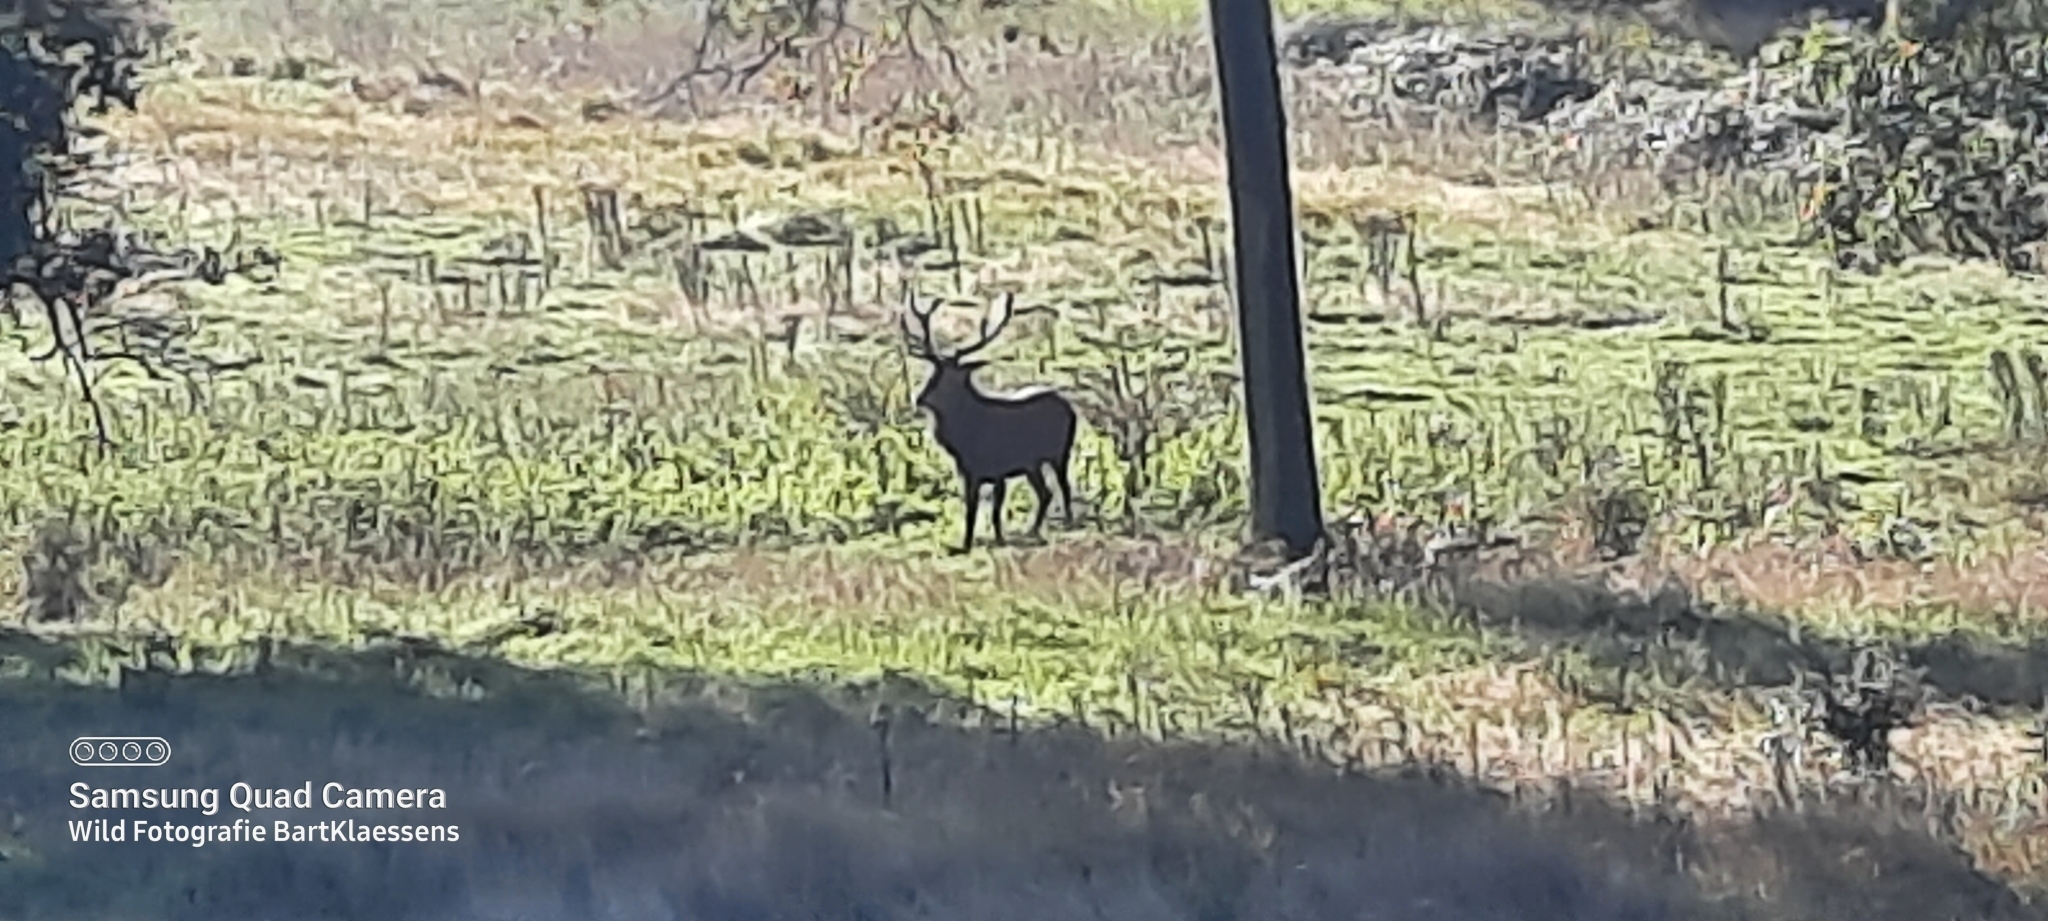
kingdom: Animalia
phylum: Chordata
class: Mammalia
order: Artiodactyla
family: Cervidae
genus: Cervus
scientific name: Cervus elaphus
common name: Red deer
